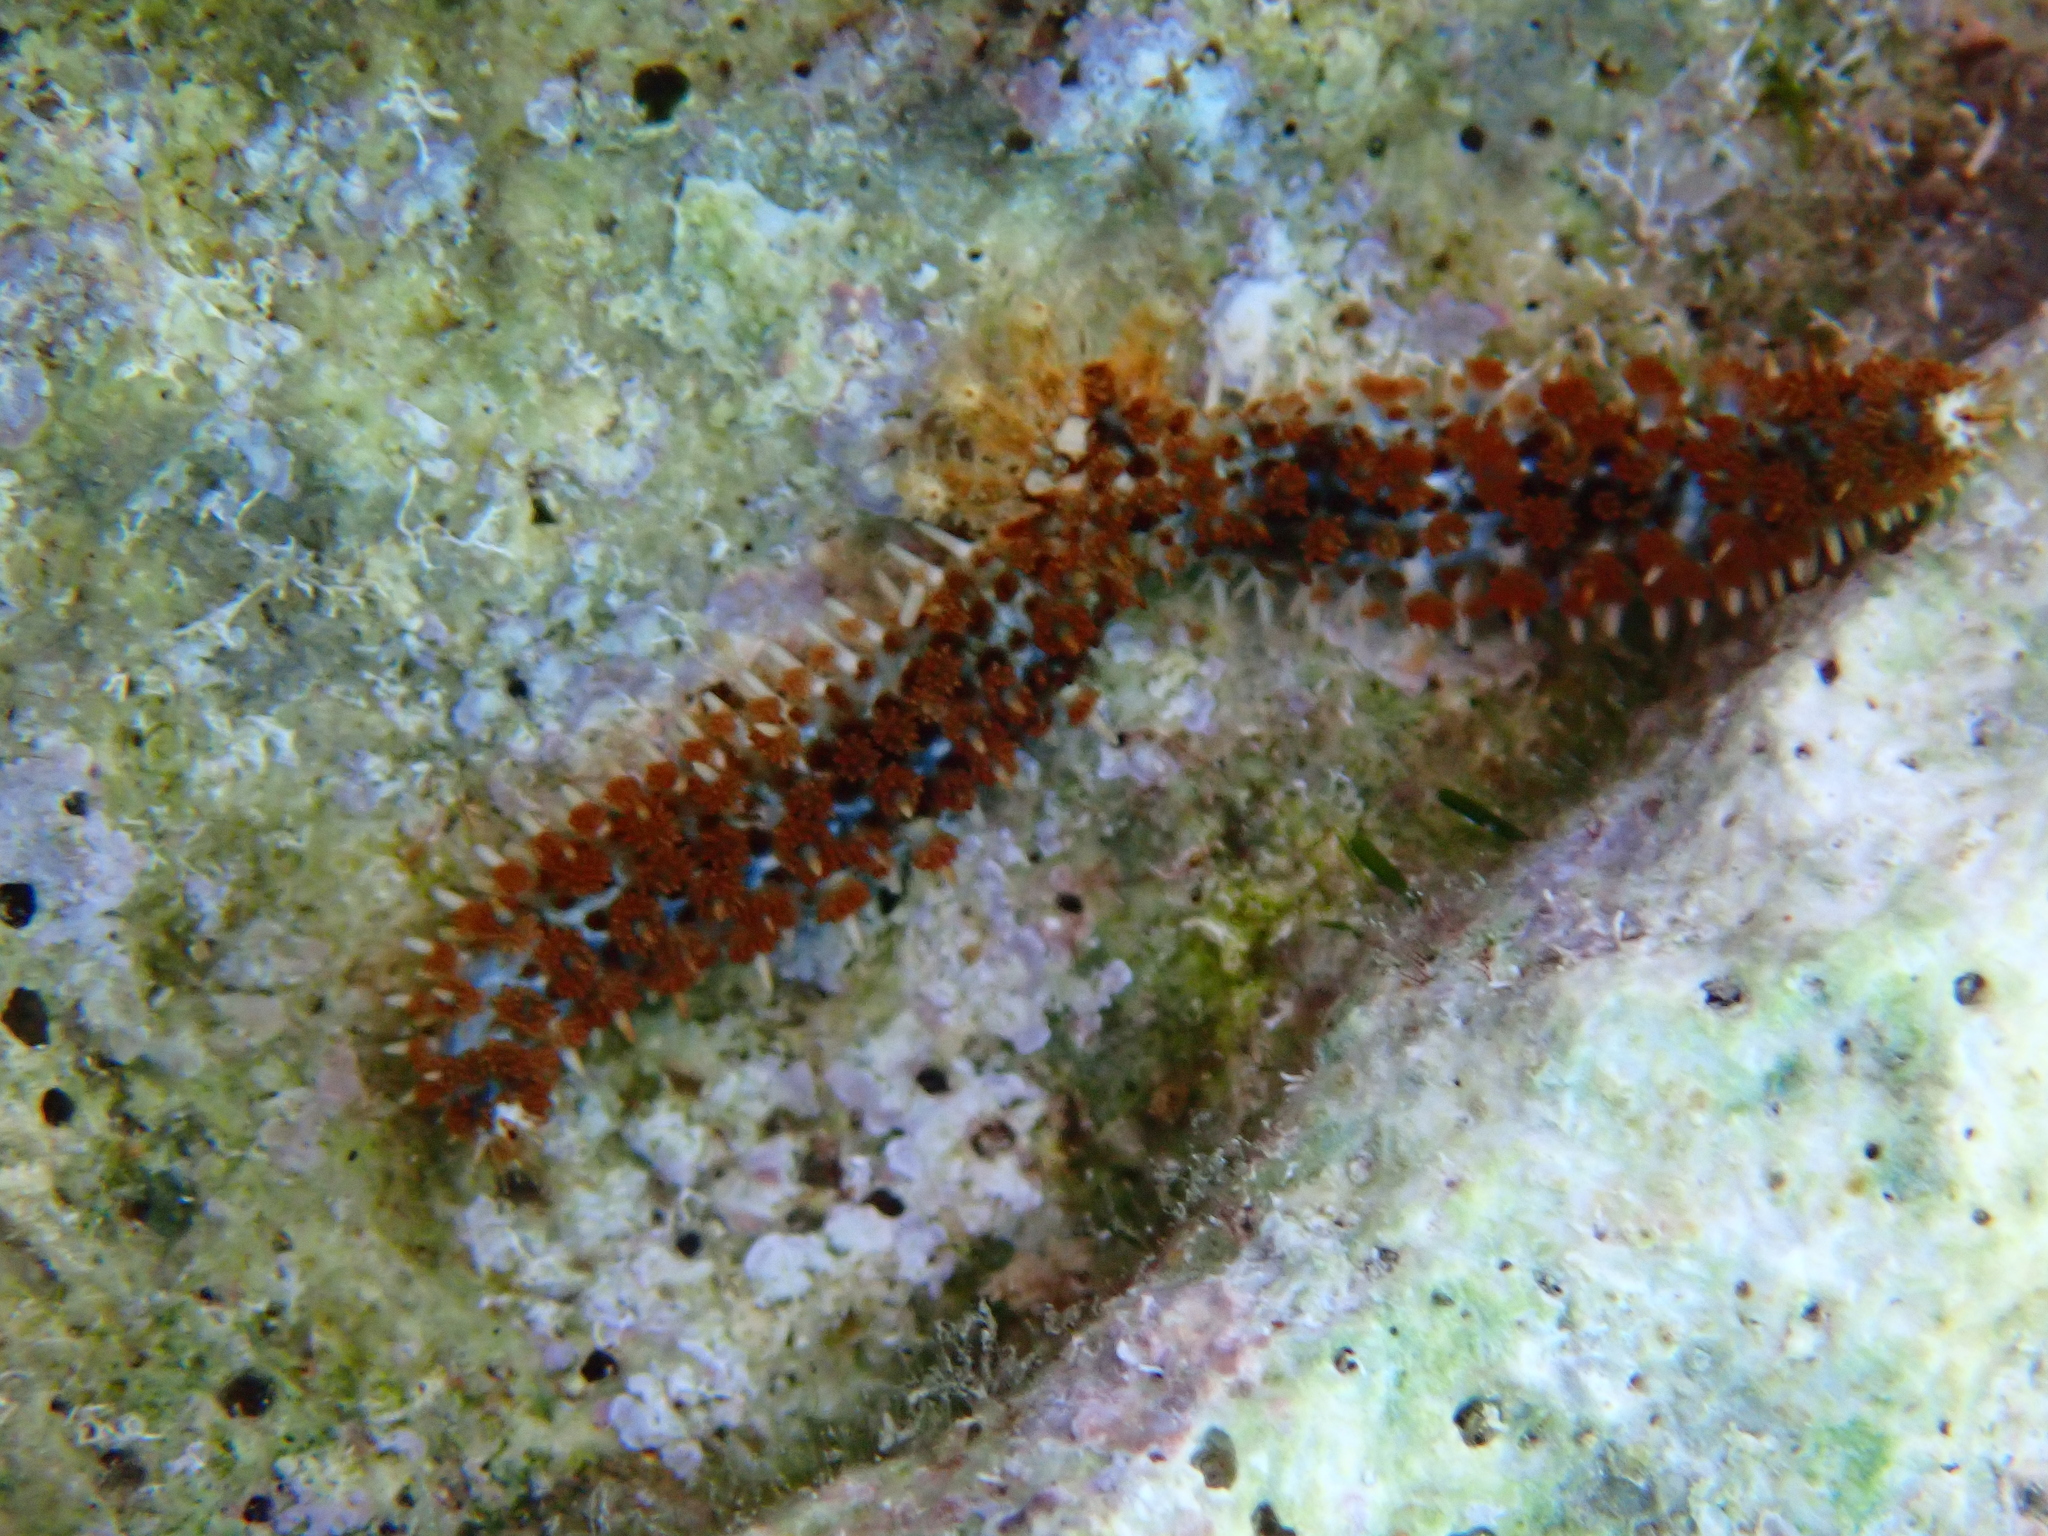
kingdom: Animalia
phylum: Echinodermata
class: Asteroidea
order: Forcipulatida
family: Asteriidae
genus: Coscinasterias
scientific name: Coscinasterias tenuispina
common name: Blue spiny starfish
